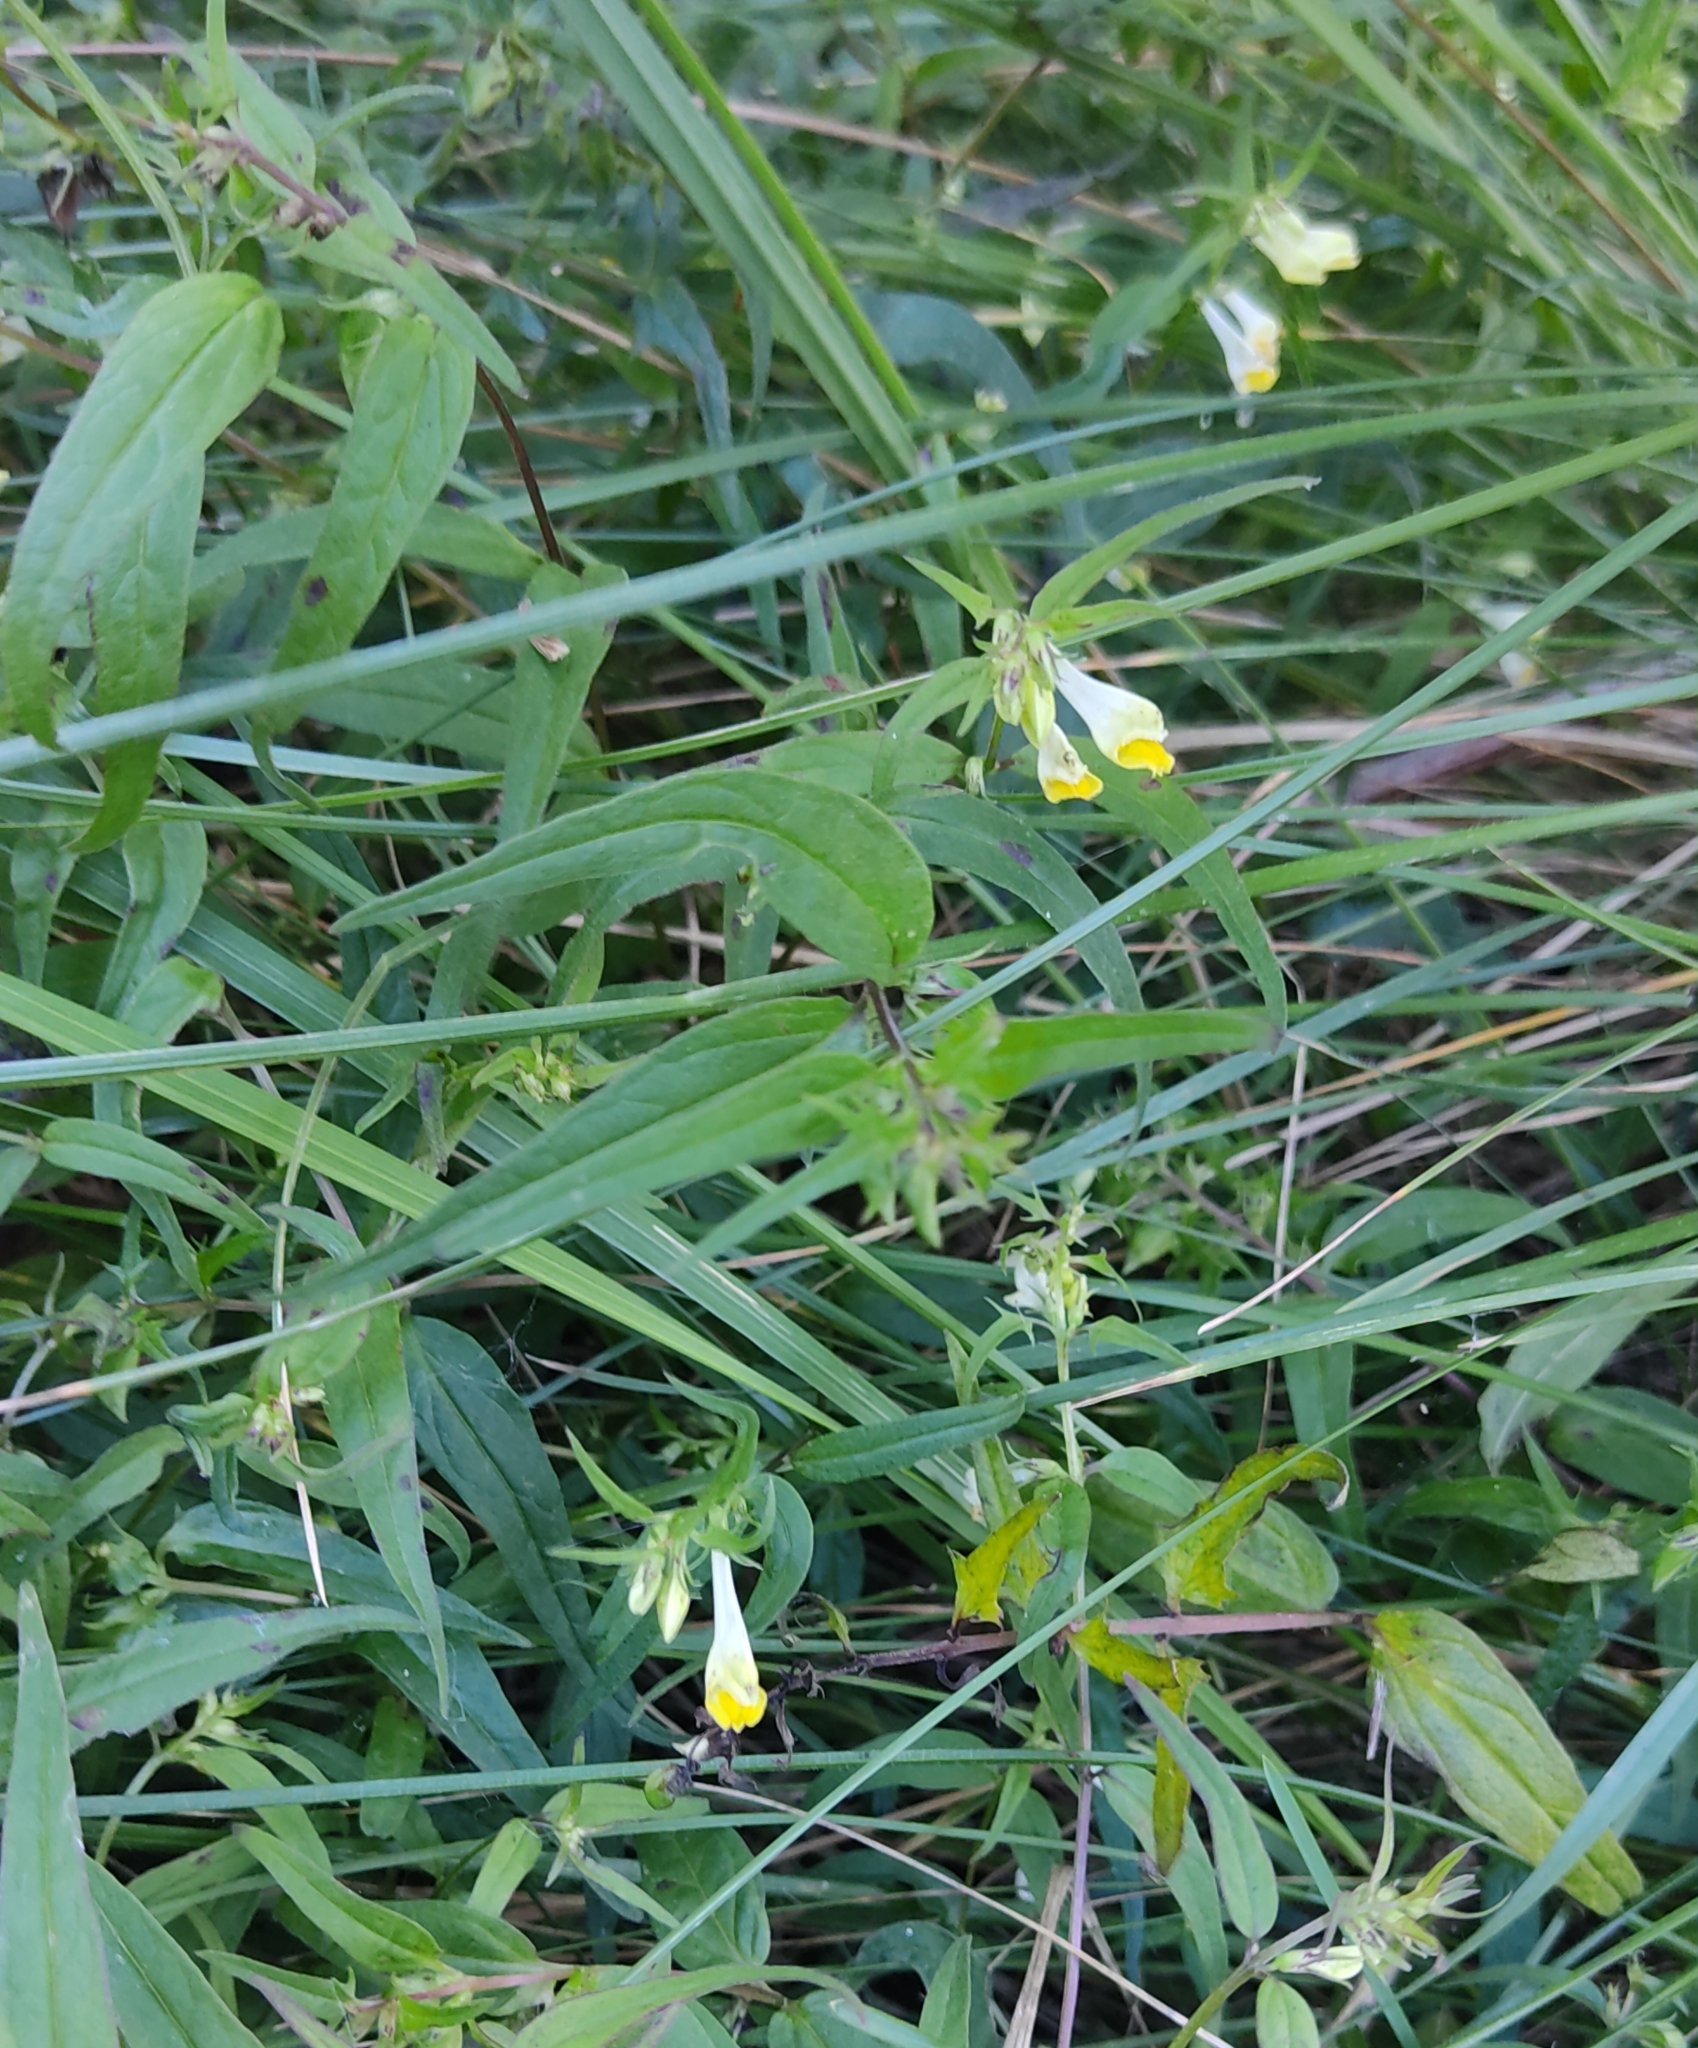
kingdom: Plantae
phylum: Tracheophyta
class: Magnoliopsida
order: Lamiales
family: Orobanchaceae
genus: Melampyrum
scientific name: Melampyrum pratense
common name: Common cow-wheat
